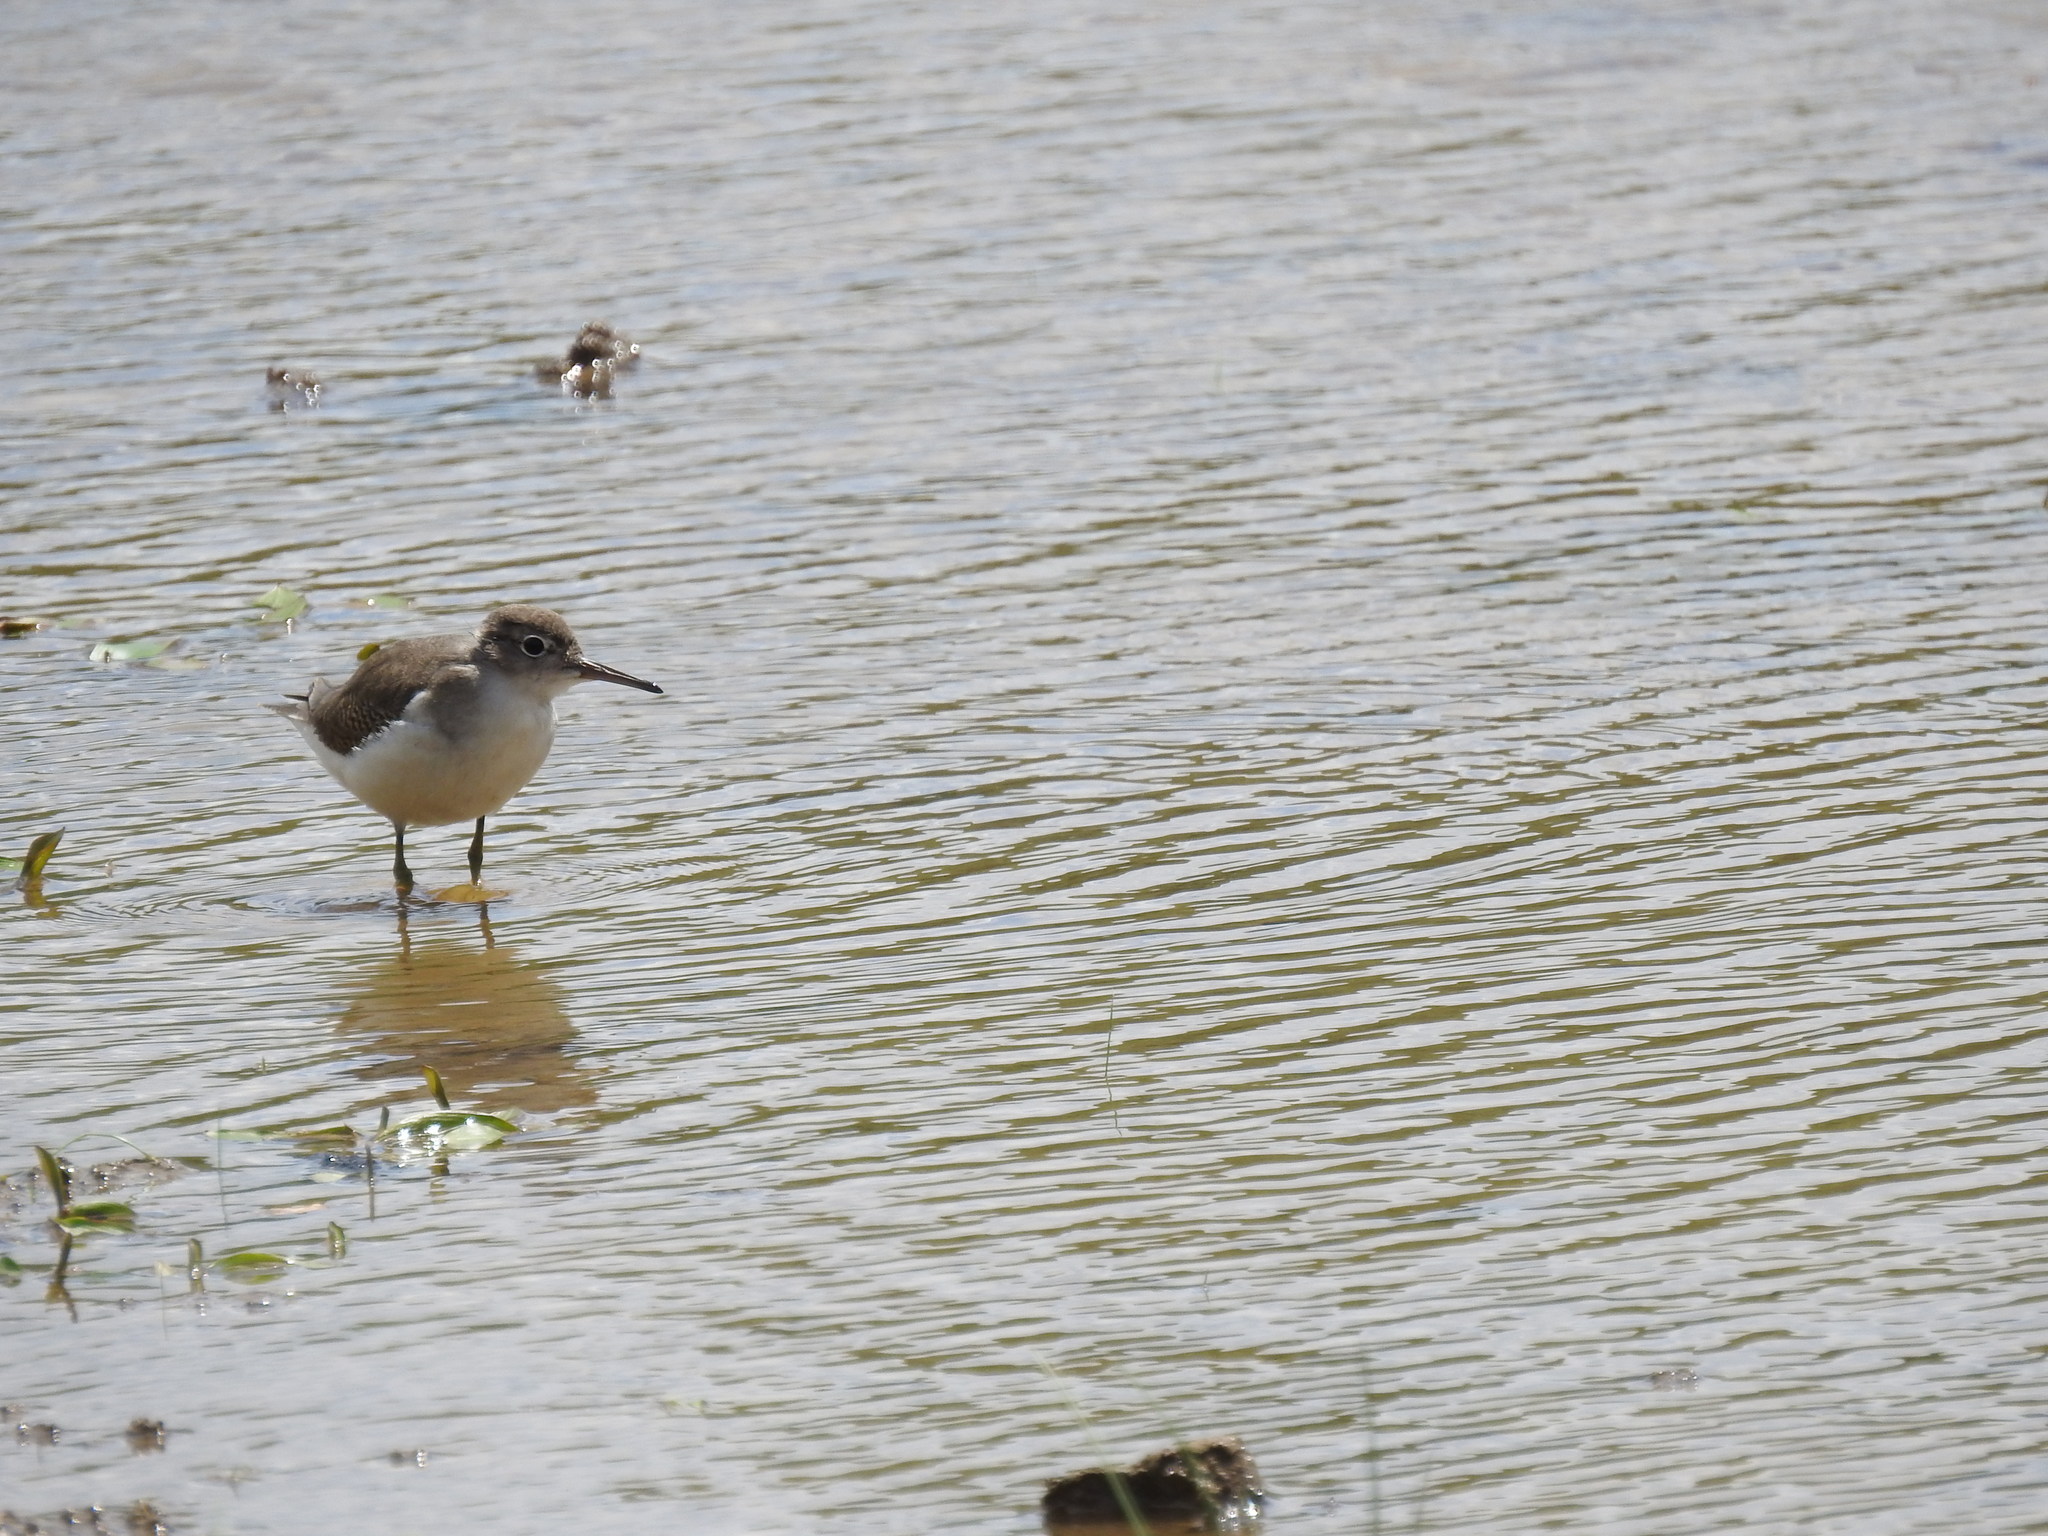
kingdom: Animalia
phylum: Chordata
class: Aves
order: Charadriiformes
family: Scolopacidae
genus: Actitis
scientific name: Actitis macularius
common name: Spotted sandpiper
